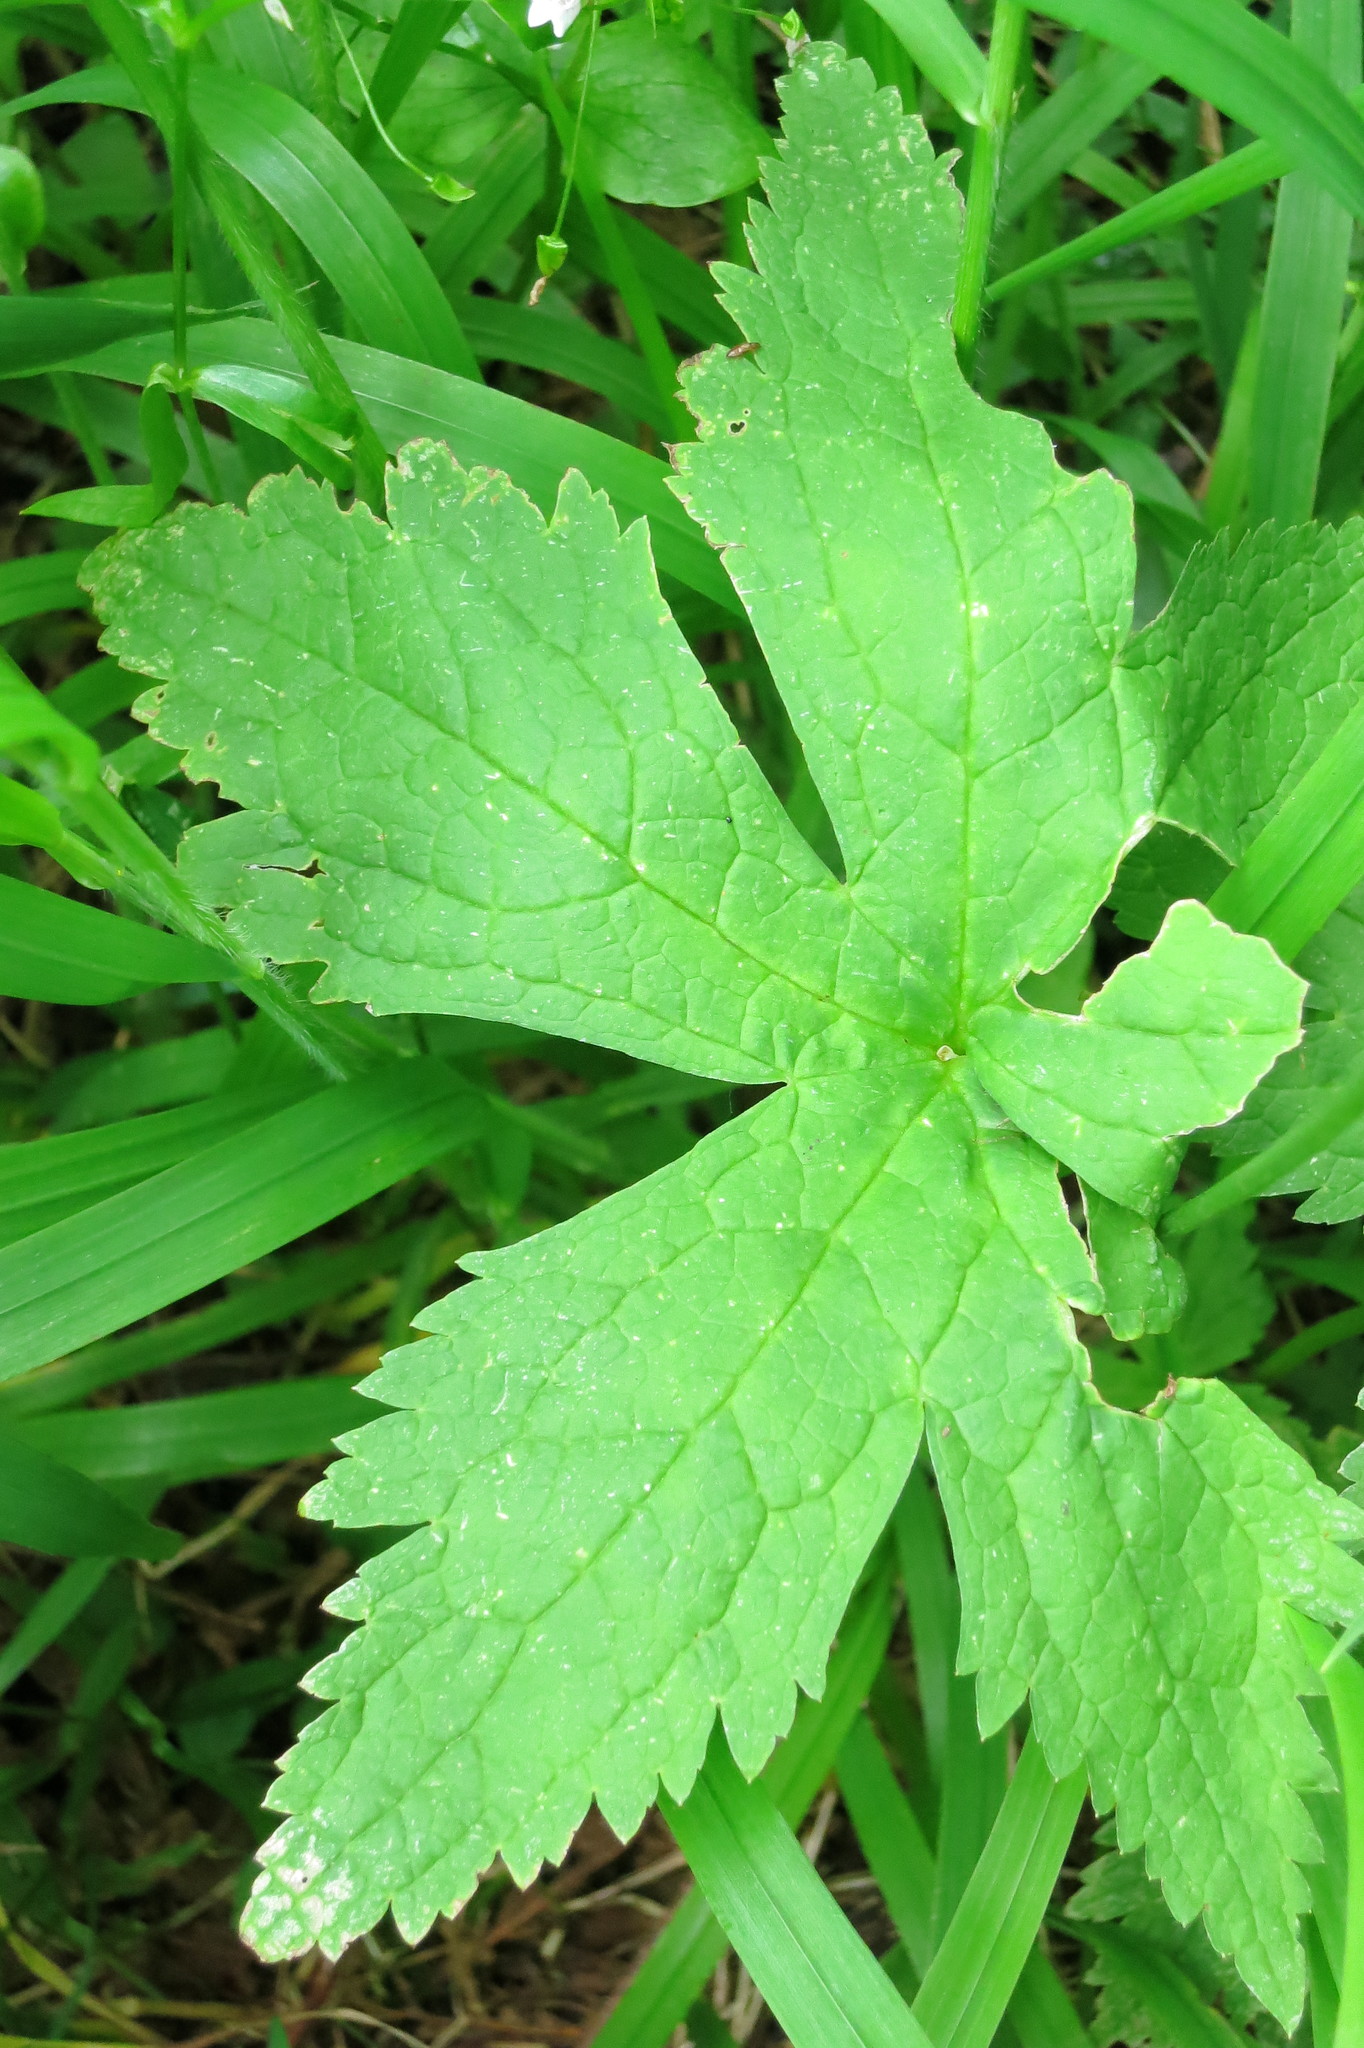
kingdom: Plantae
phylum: Tracheophyta
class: Magnoliopsida
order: Ranunculales
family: Ranunculaceae
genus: Trautvetteria
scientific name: Trautvetteria carolinensis
